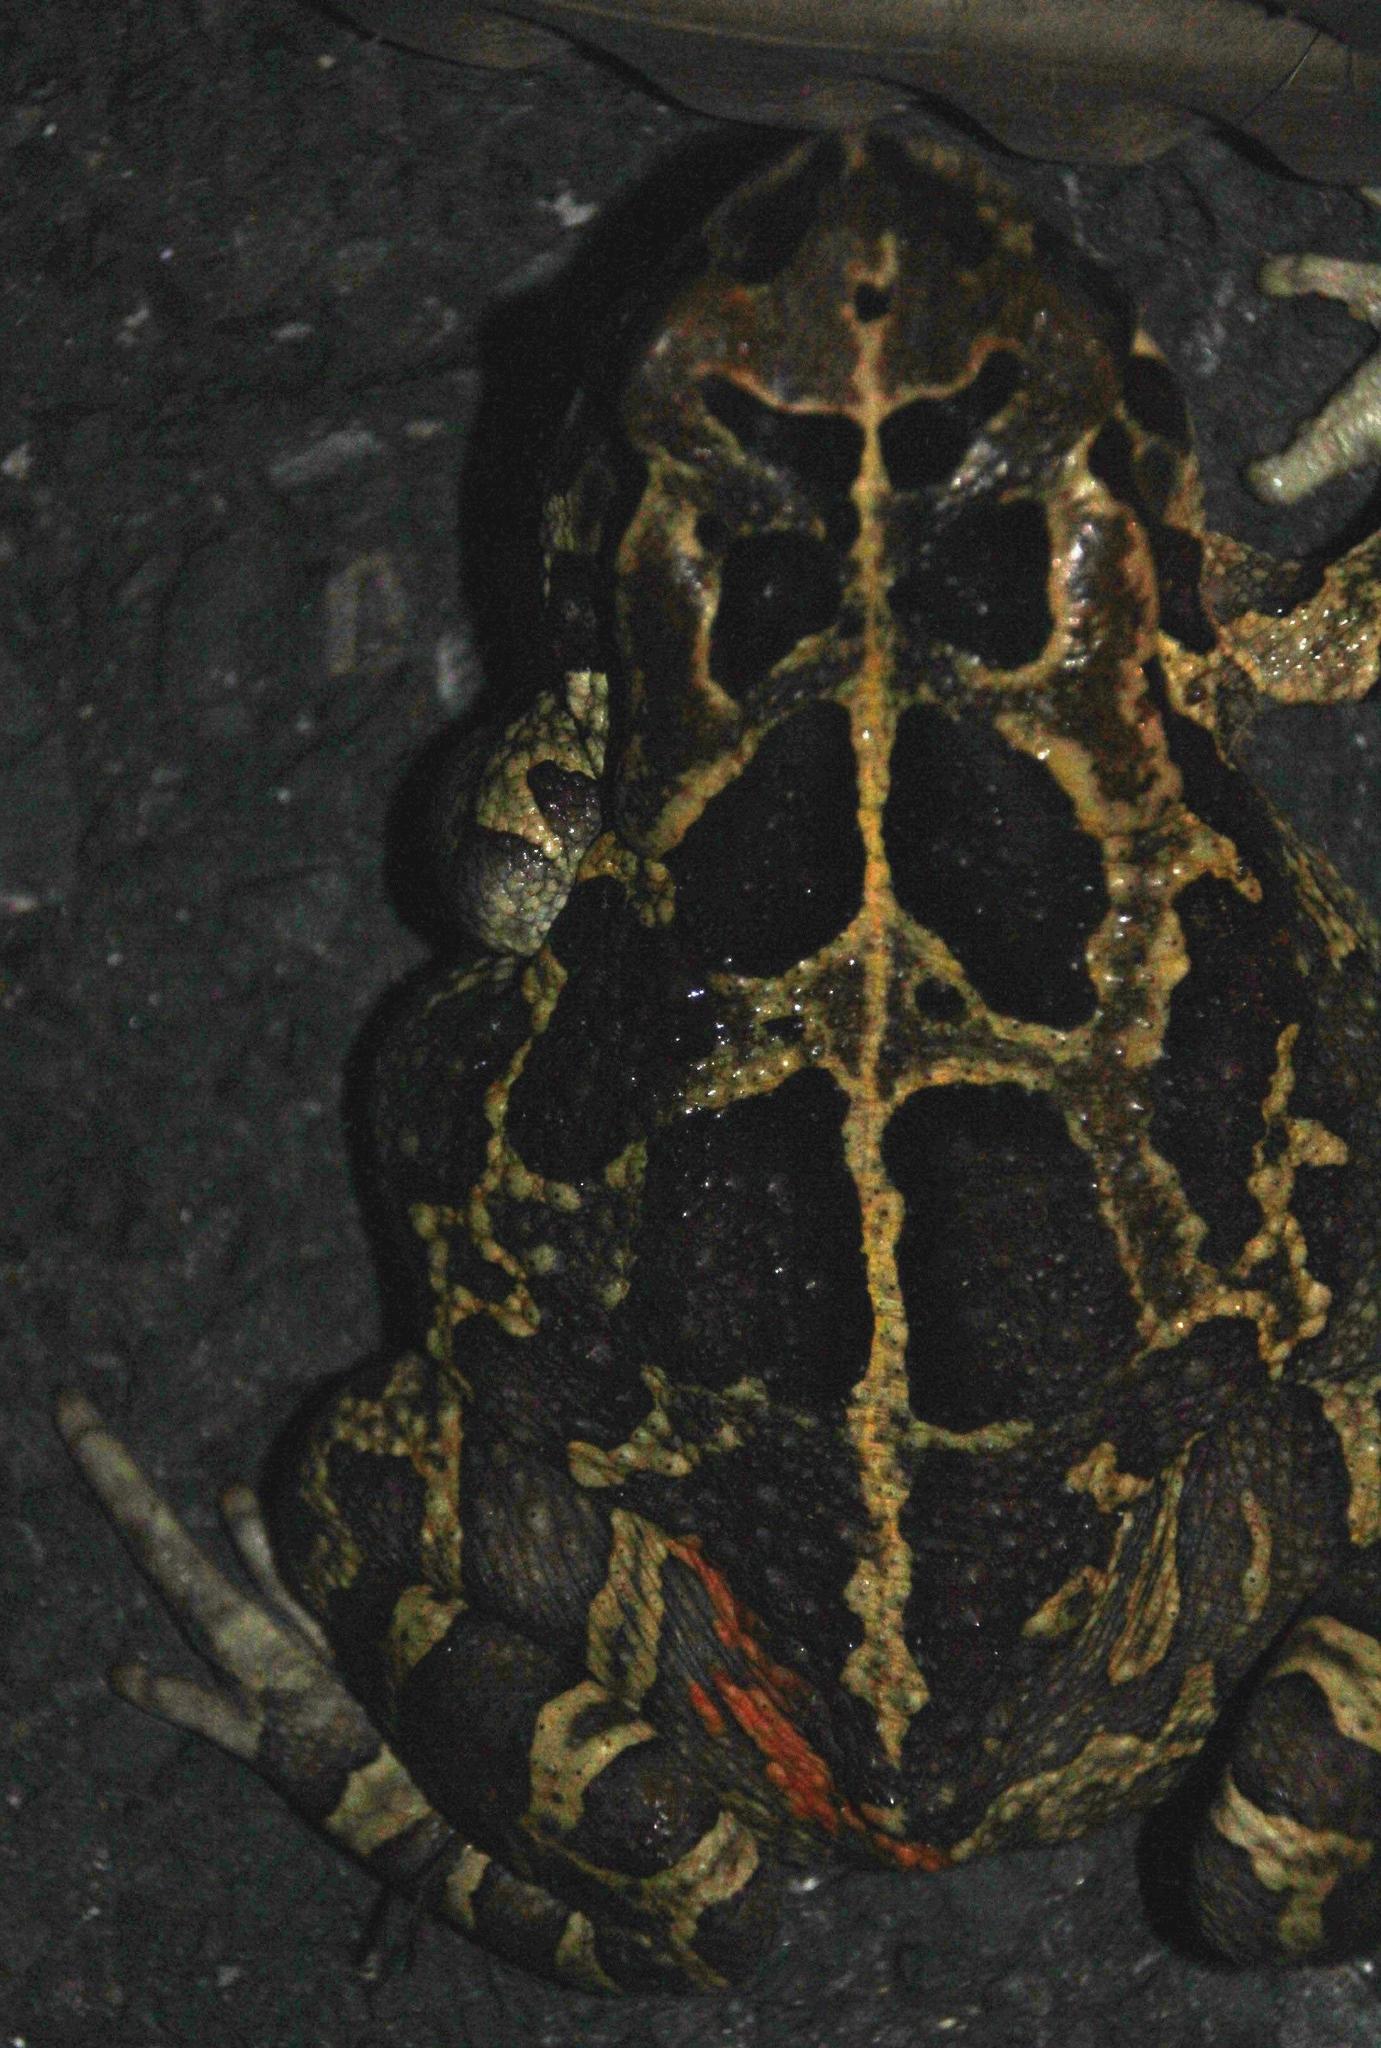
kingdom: Animalia
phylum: Chordata
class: Amphibia
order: Anura
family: Bufonidae
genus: Sclerophrys
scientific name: Sclerophrys pantherina
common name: Panther toad
